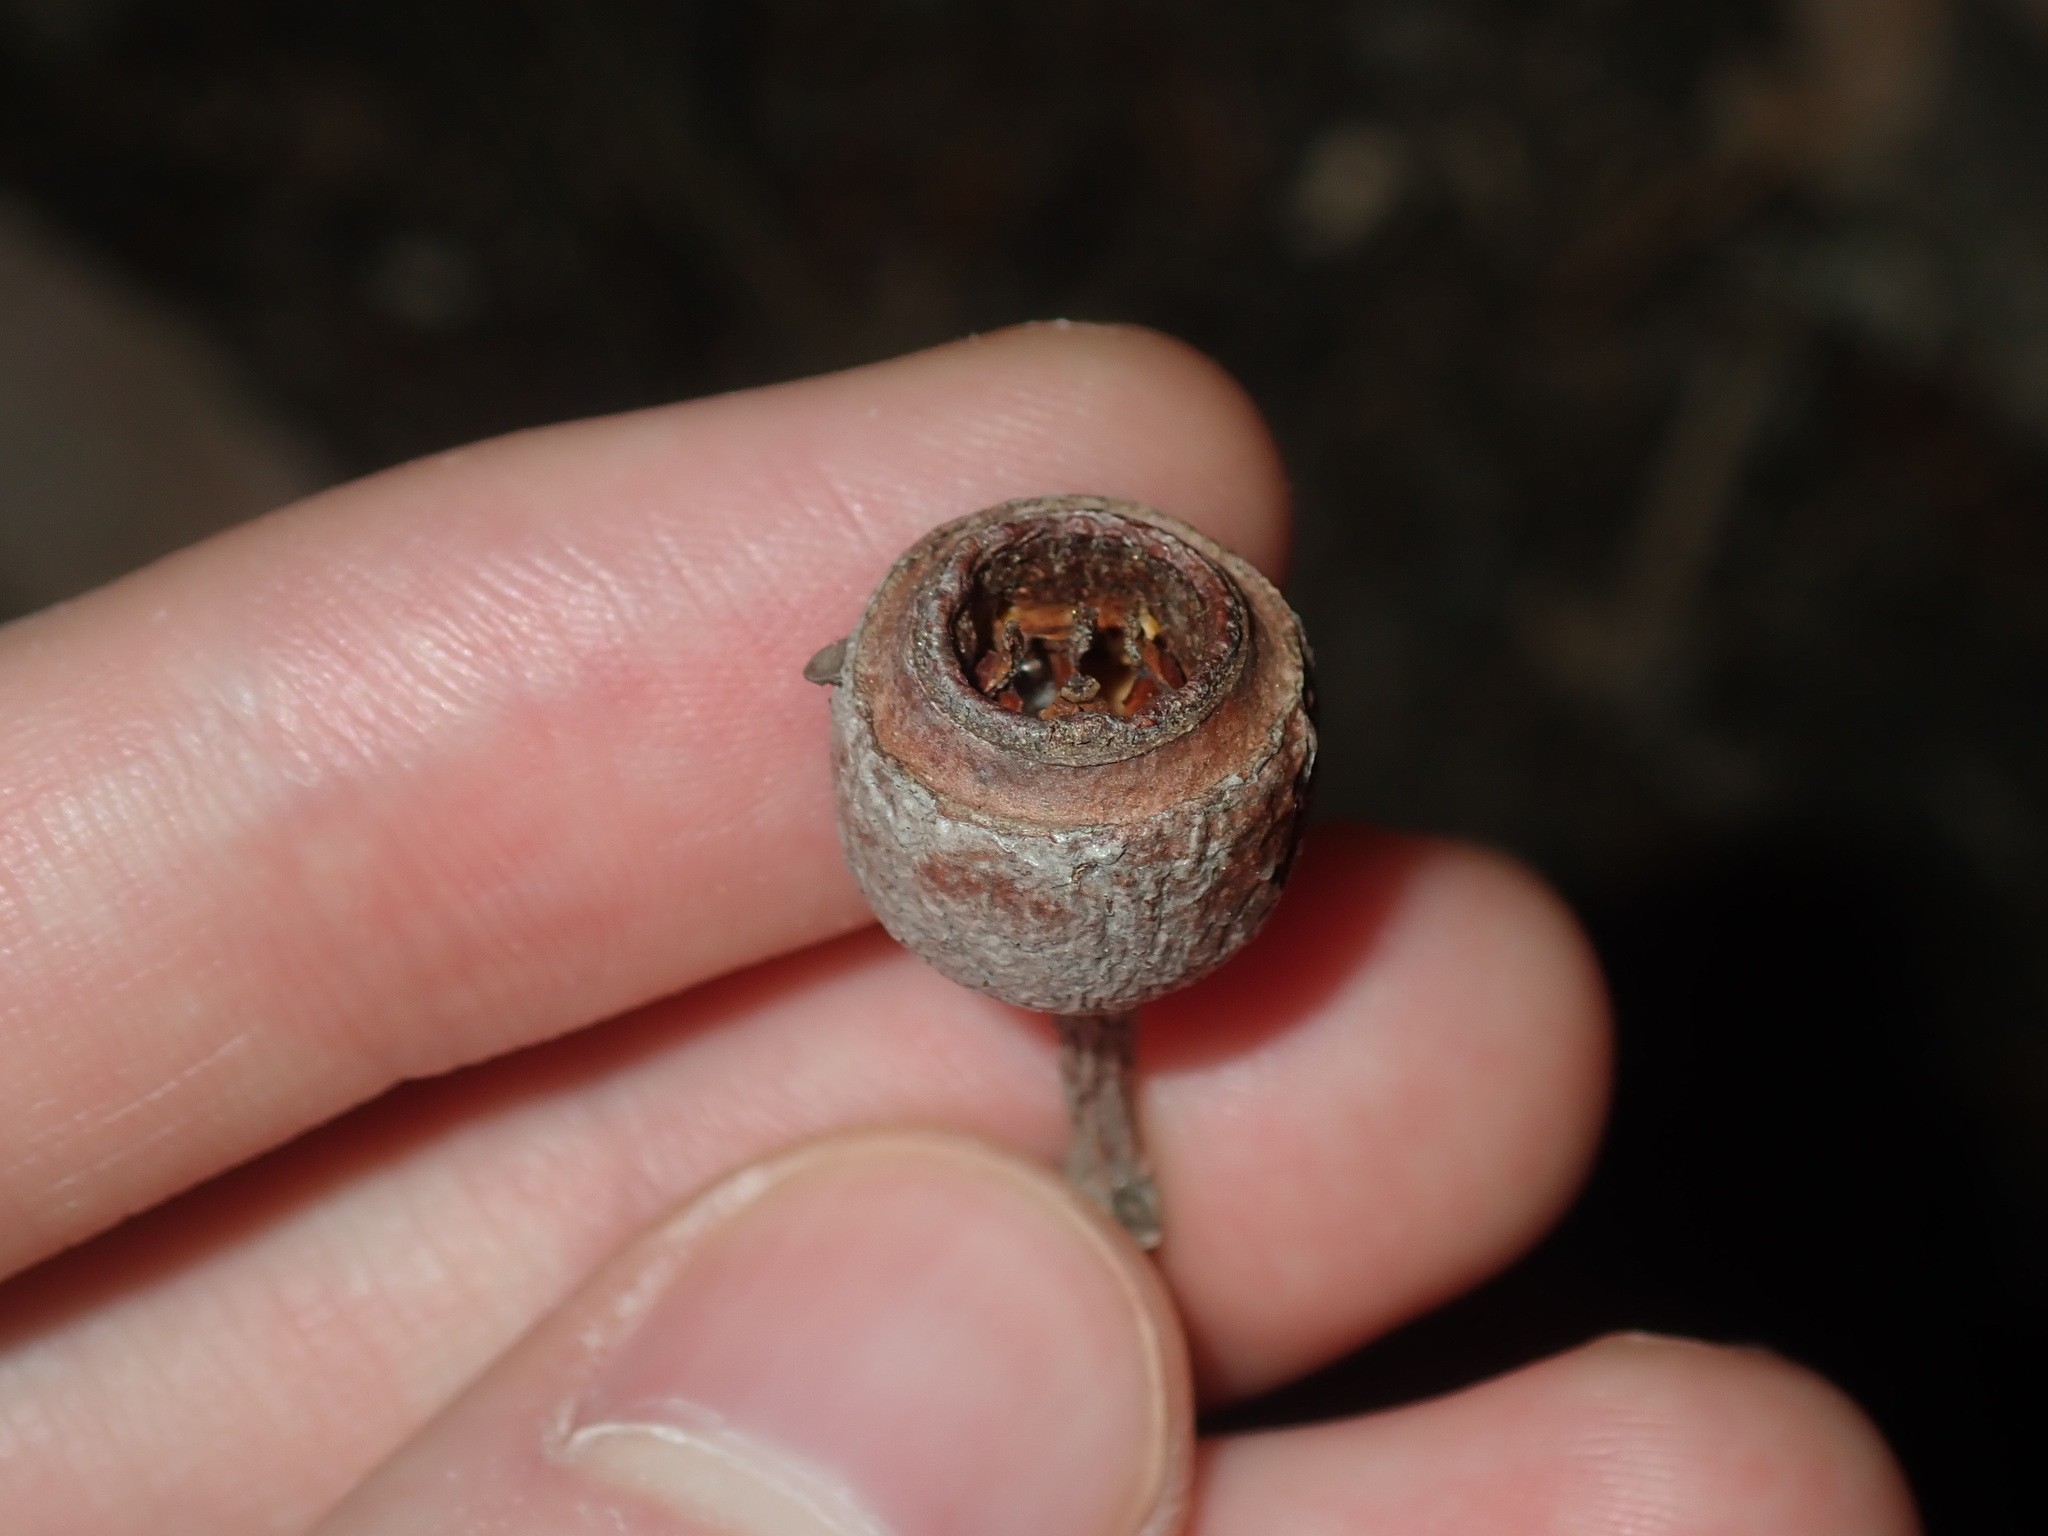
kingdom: Plantae
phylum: Tracheophyta
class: Magnoliopsida
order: Myrtales
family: Myrtaceae
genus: Eucalyptus
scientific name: Eucalyptus longifolia
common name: Woollybutt
